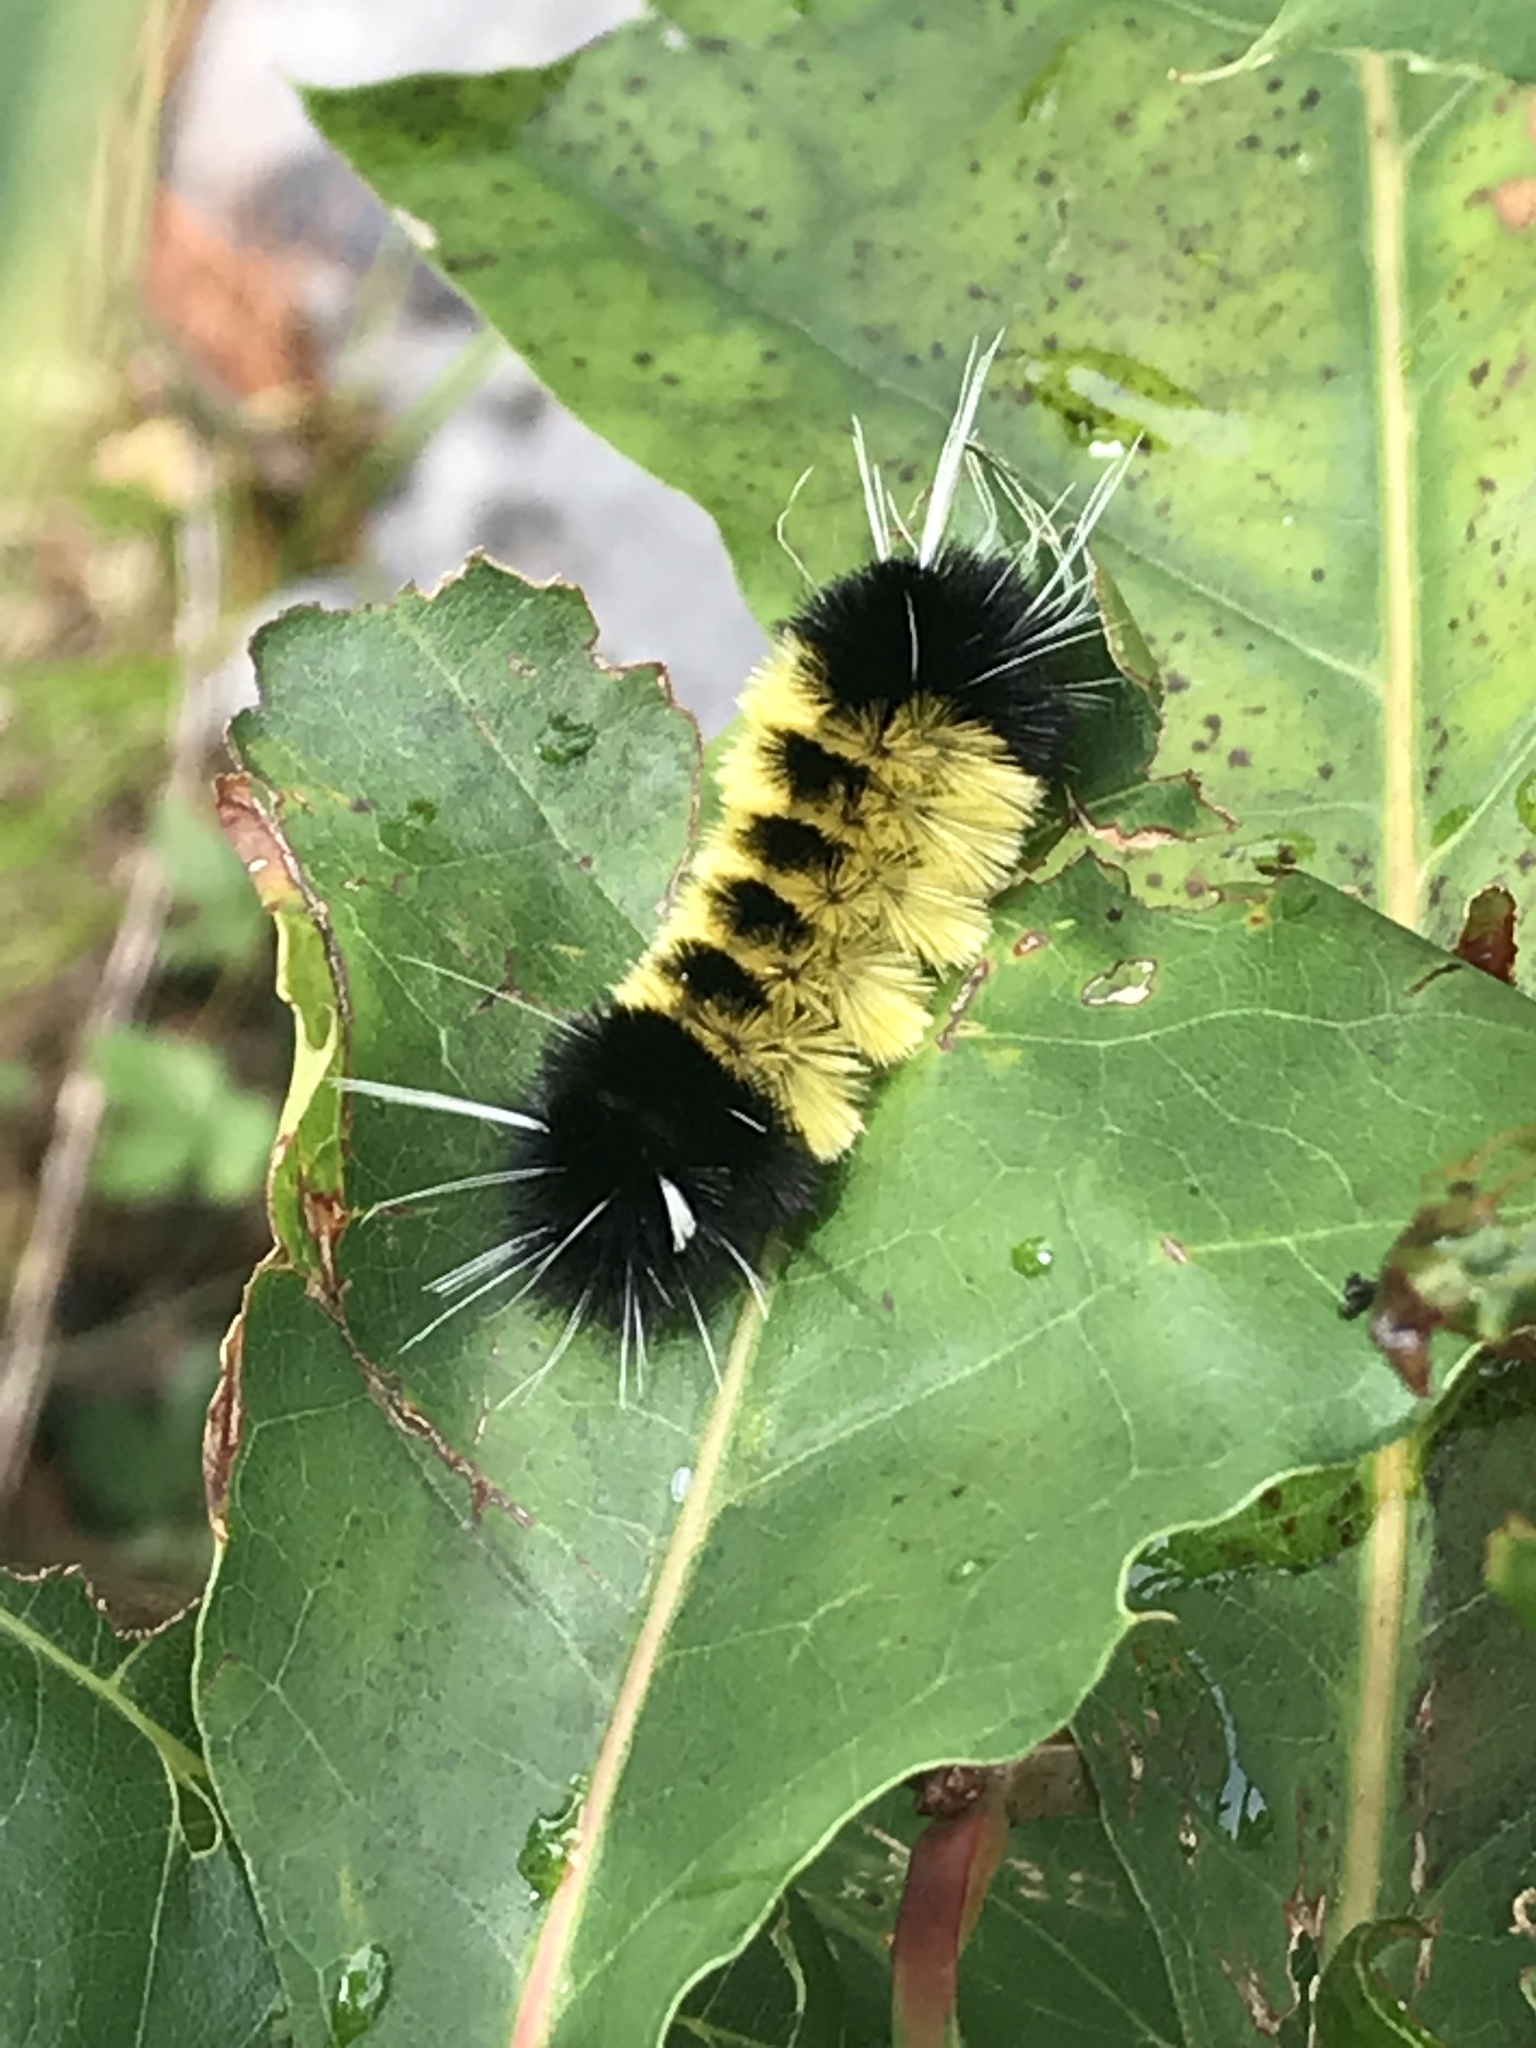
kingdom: Animalia
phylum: Arthropoda
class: Insecta
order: Lepidoptera
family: Erebidae
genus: Lophocampa
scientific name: Lophocampa maculata
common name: Spotted tussock moth
